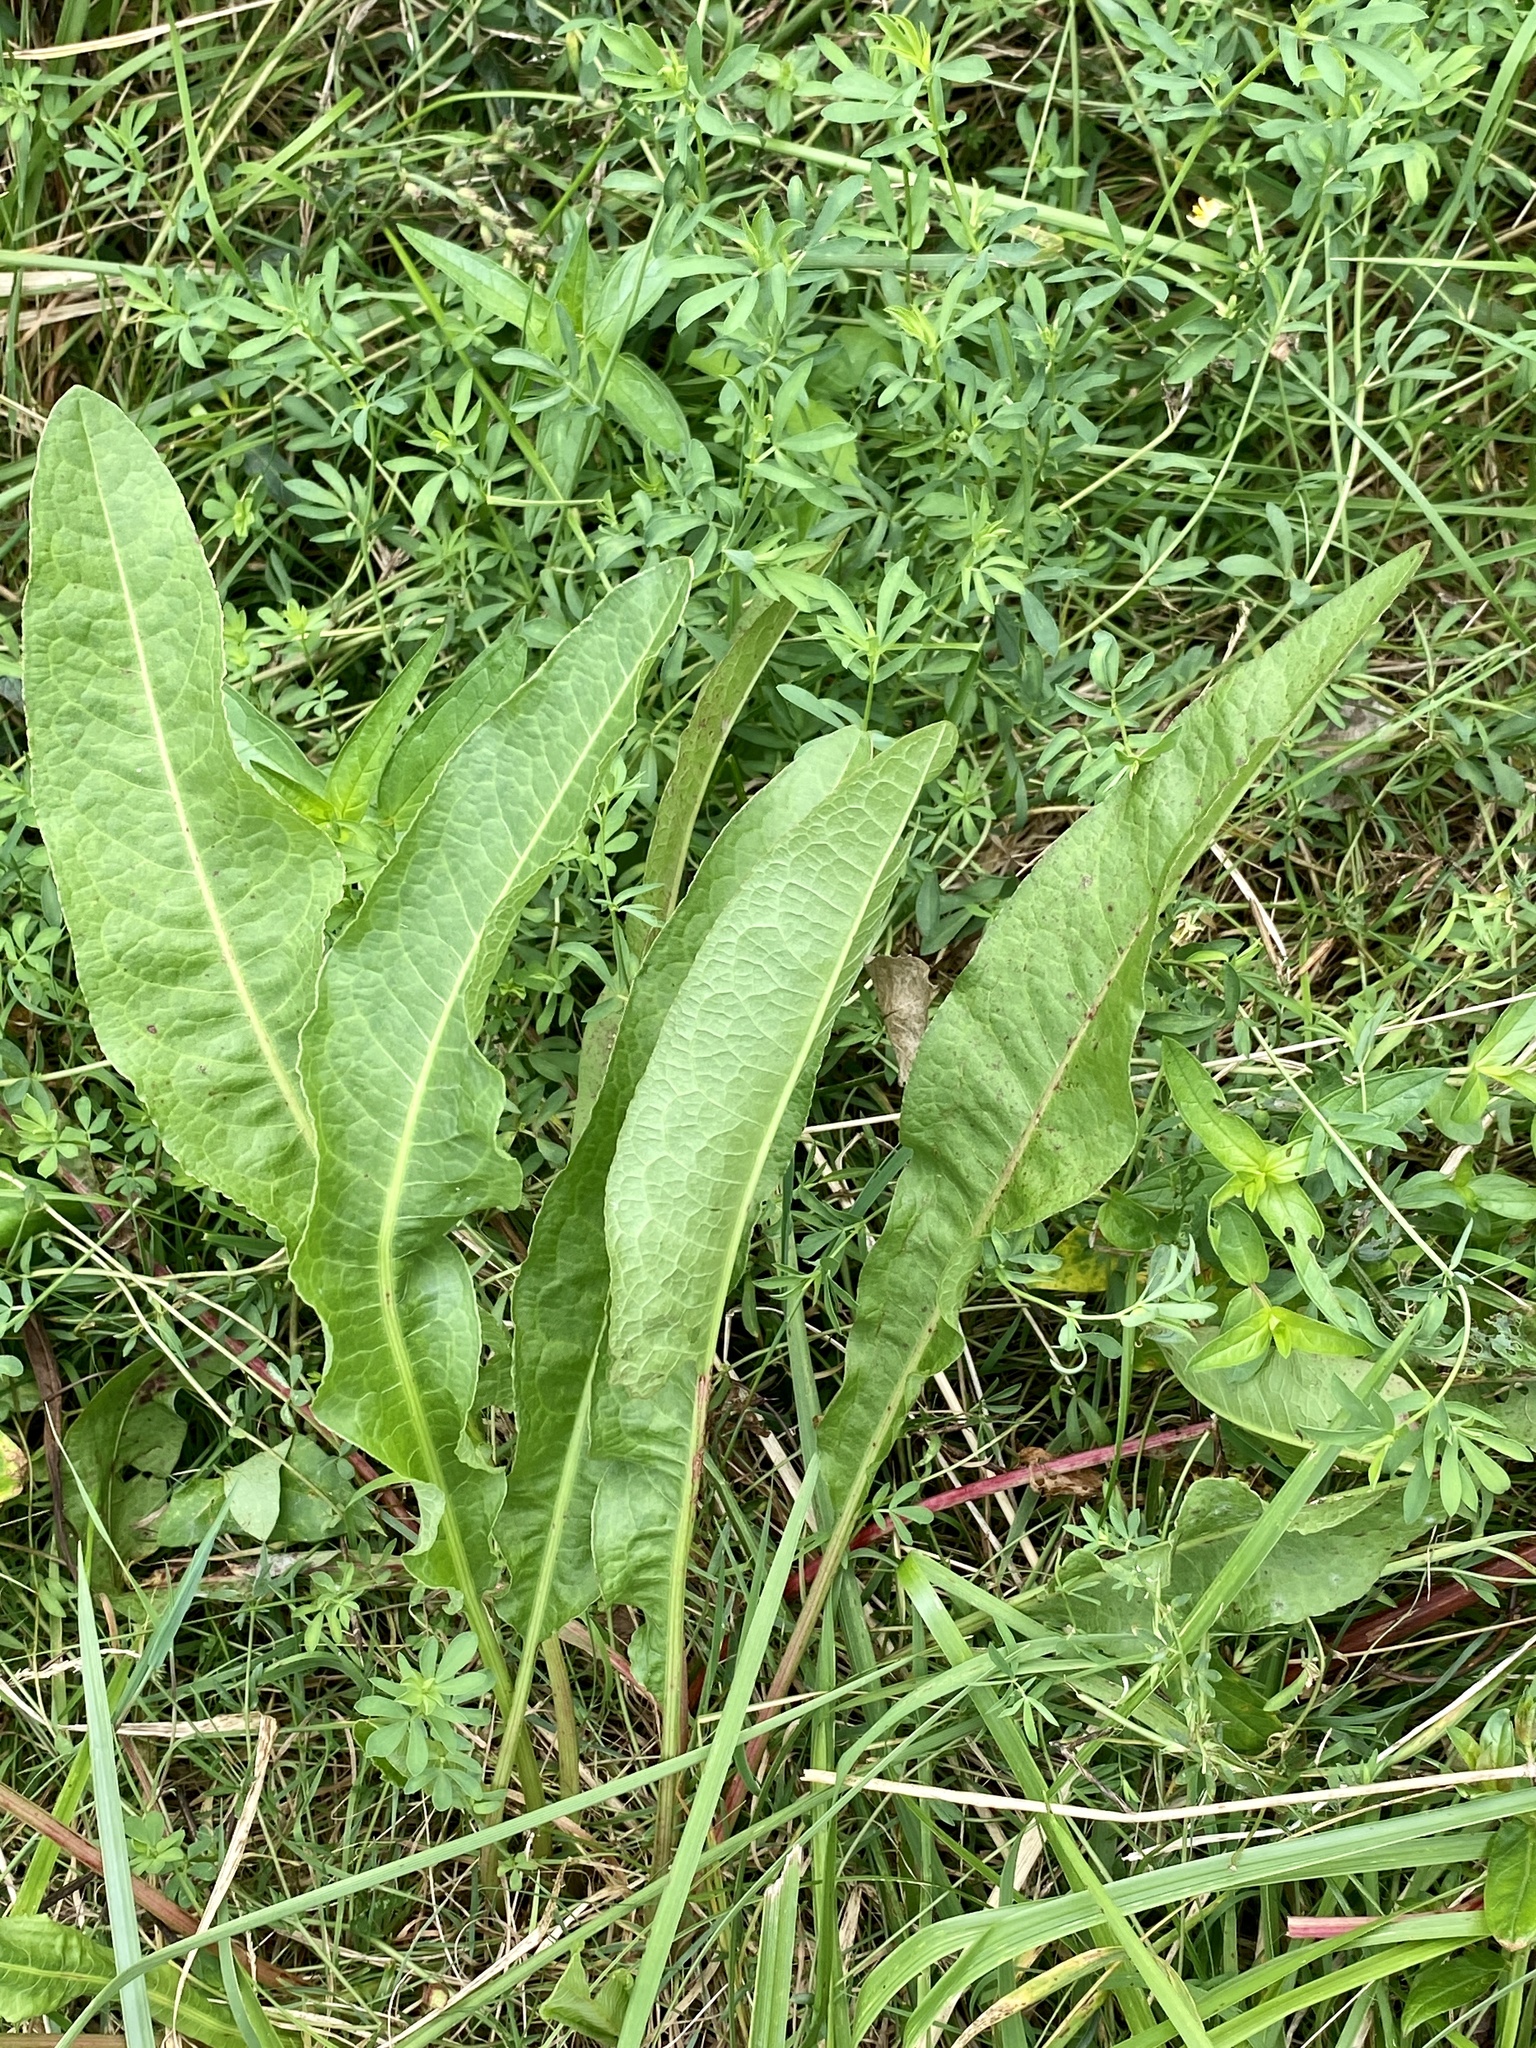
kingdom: Plantae
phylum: Tracheophyta
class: Magnoliopsida
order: Caryophyllales
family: Polygonaceae
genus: Rumex
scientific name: Rumex crispus
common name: Curled dock
